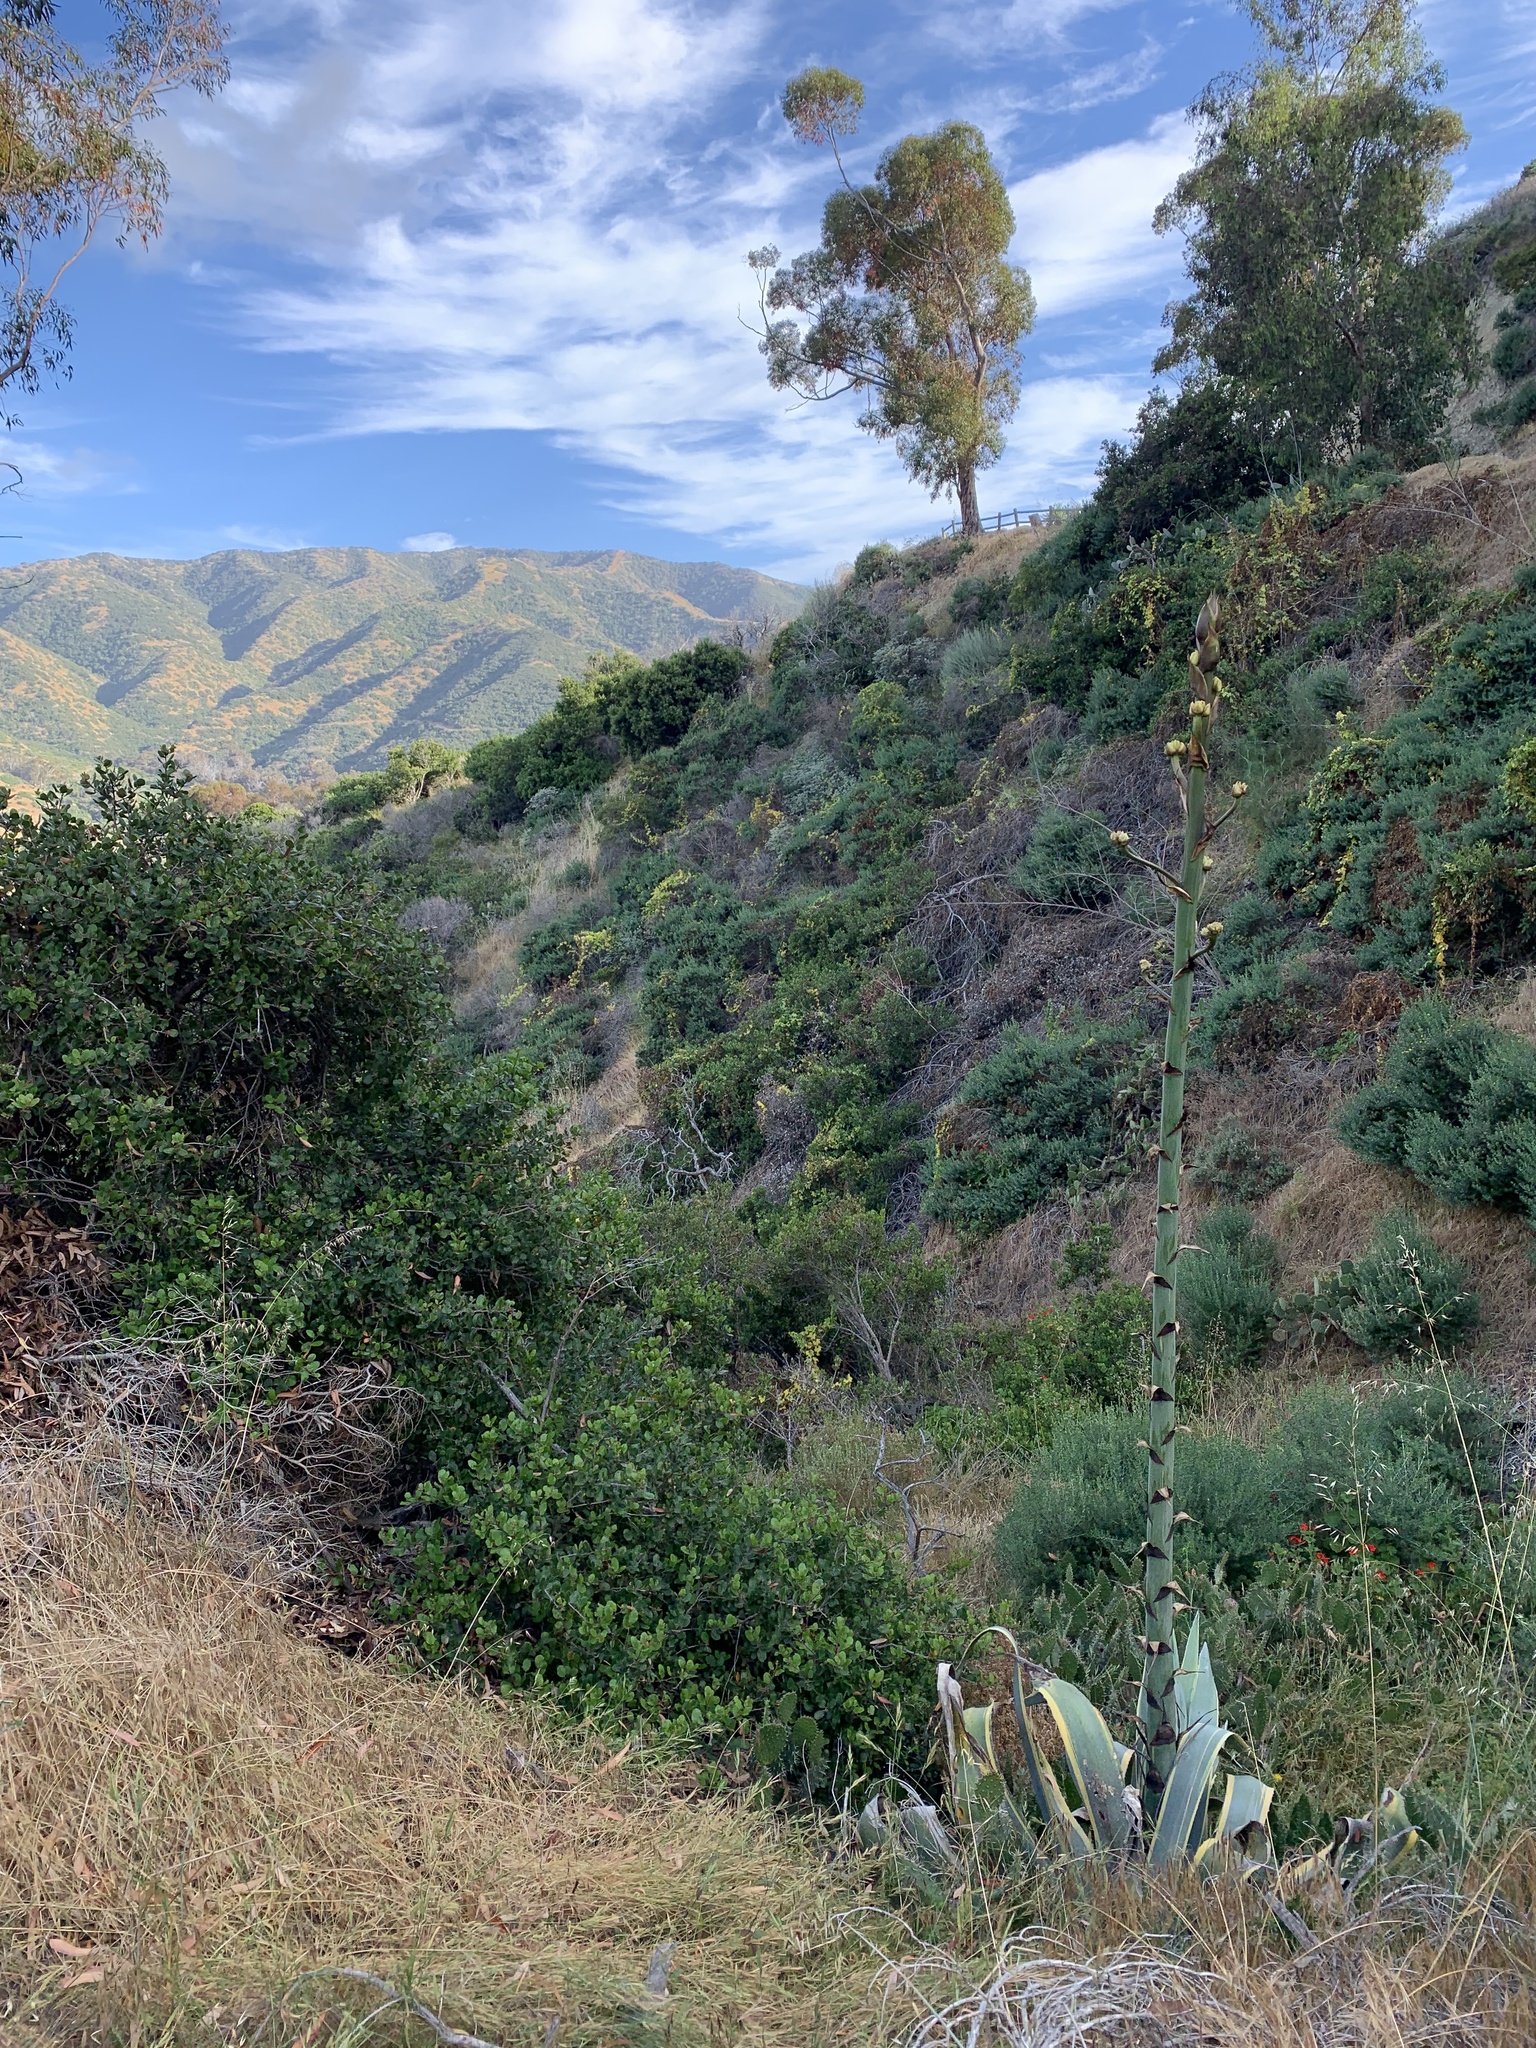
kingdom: Plantae
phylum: Tracheophyta
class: Liliopsida
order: Asparagales
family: Asparagaceae
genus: Agave
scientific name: Agave americana
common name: Centuryplant
